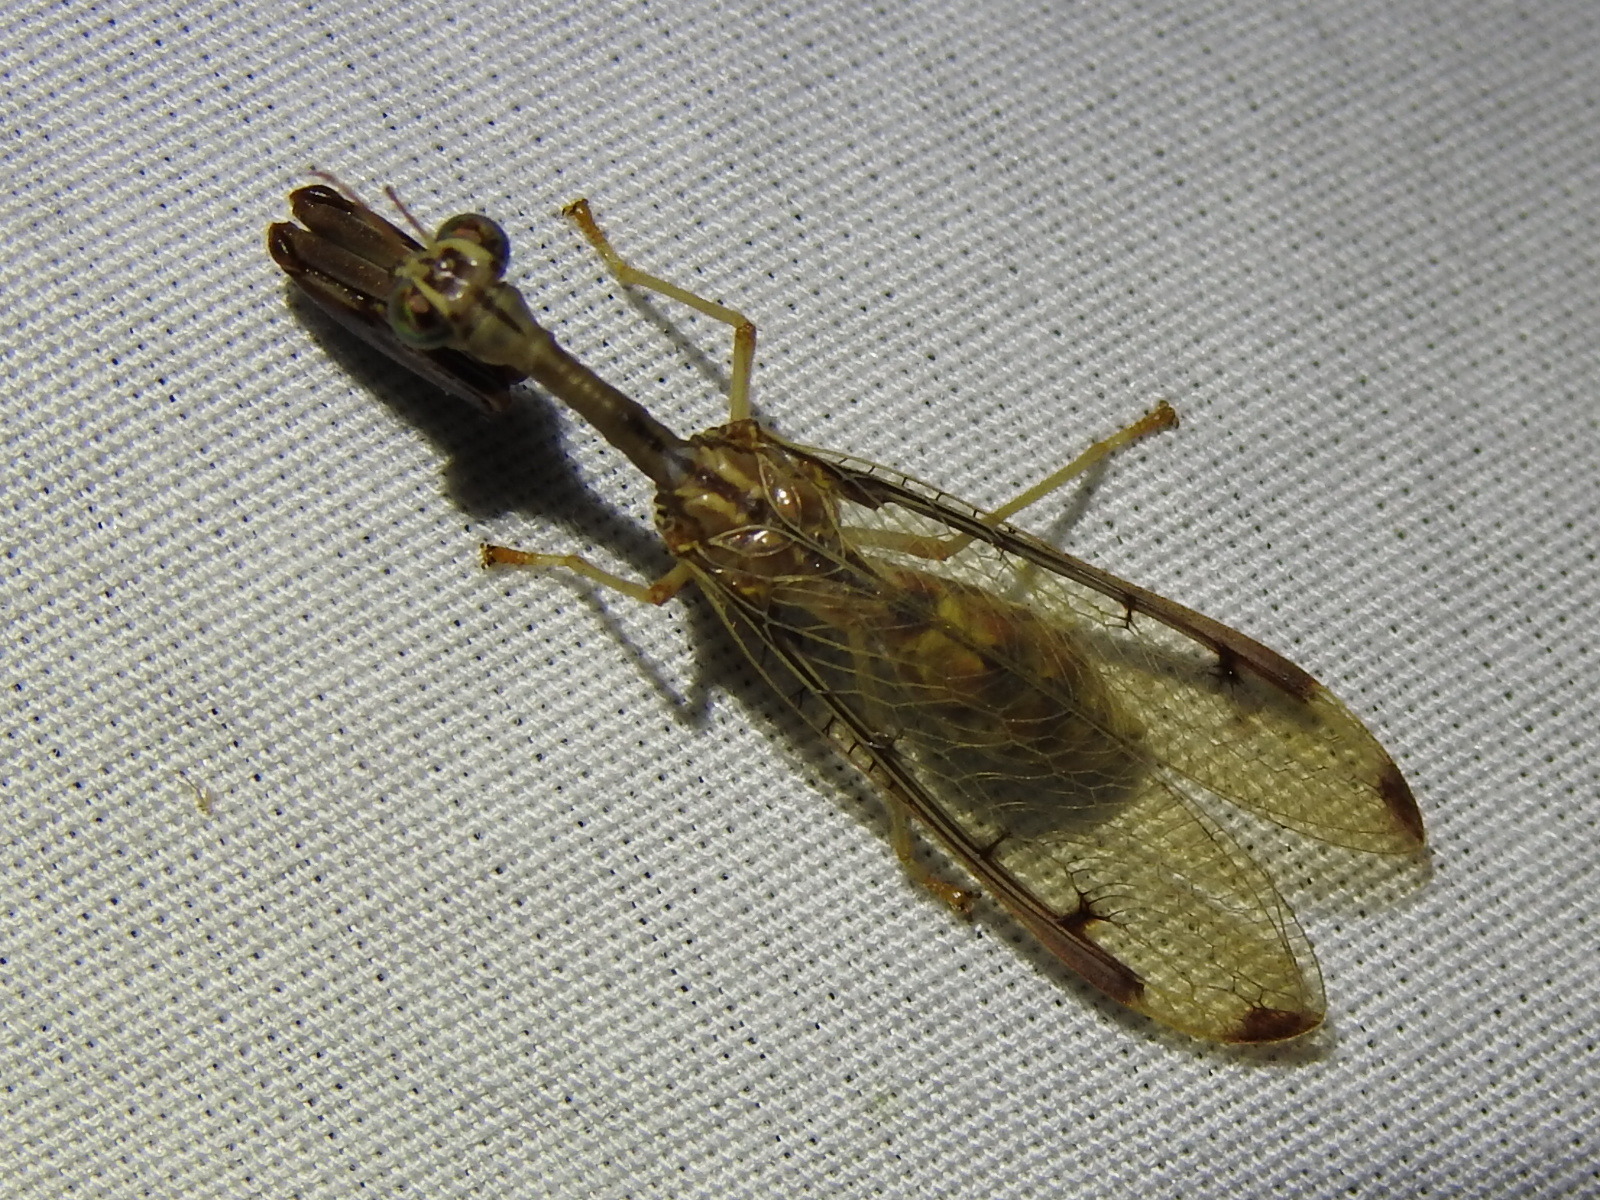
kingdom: Animalia
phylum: Arthropoda
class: Insecta
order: Neuroptera
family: Mantispidae
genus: Dicromantispa
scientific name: Dicromantispa interrupta
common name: Four-spotted mantidfly
